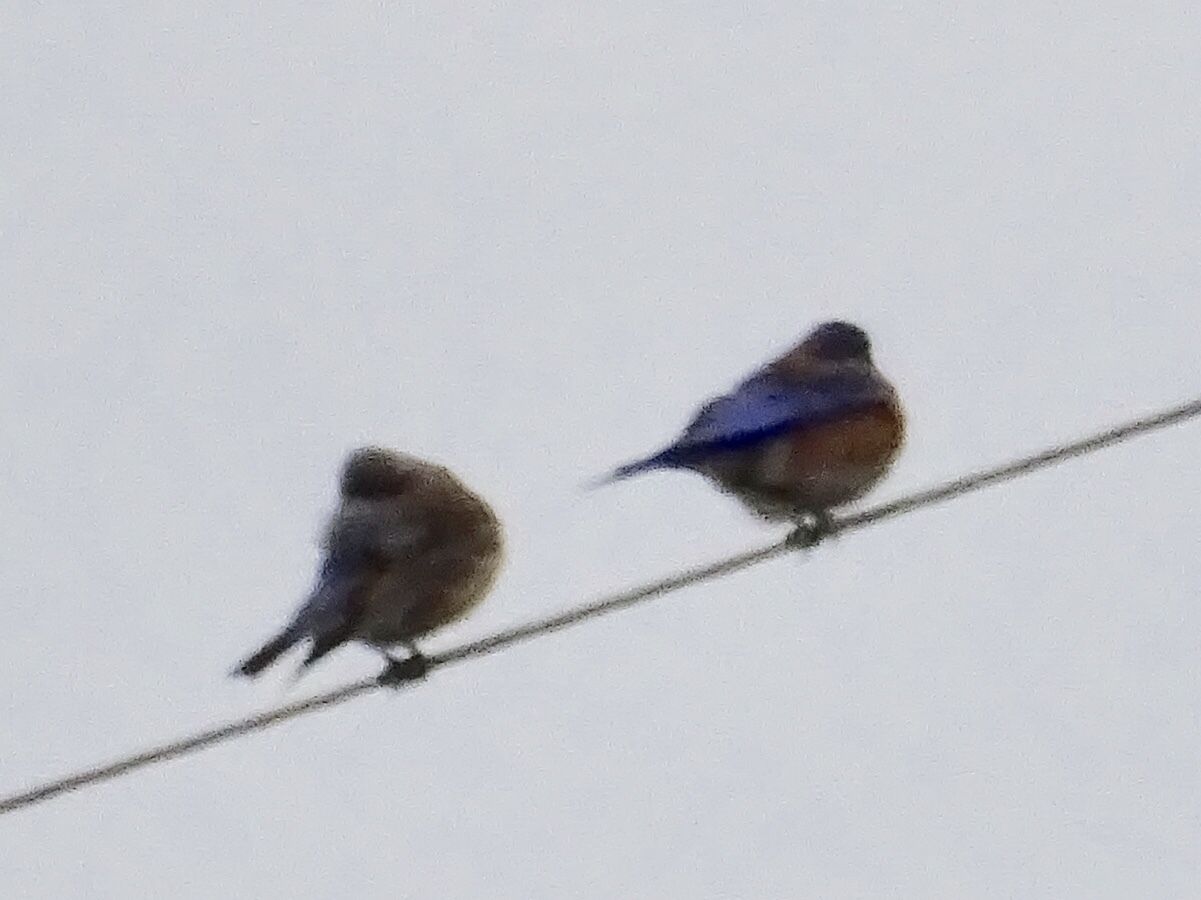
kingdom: Animalia
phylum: Chordata
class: Aves
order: Passeriformes
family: Turdidae
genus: Sialia
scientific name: Sialia mexicana
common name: Western bluebird
